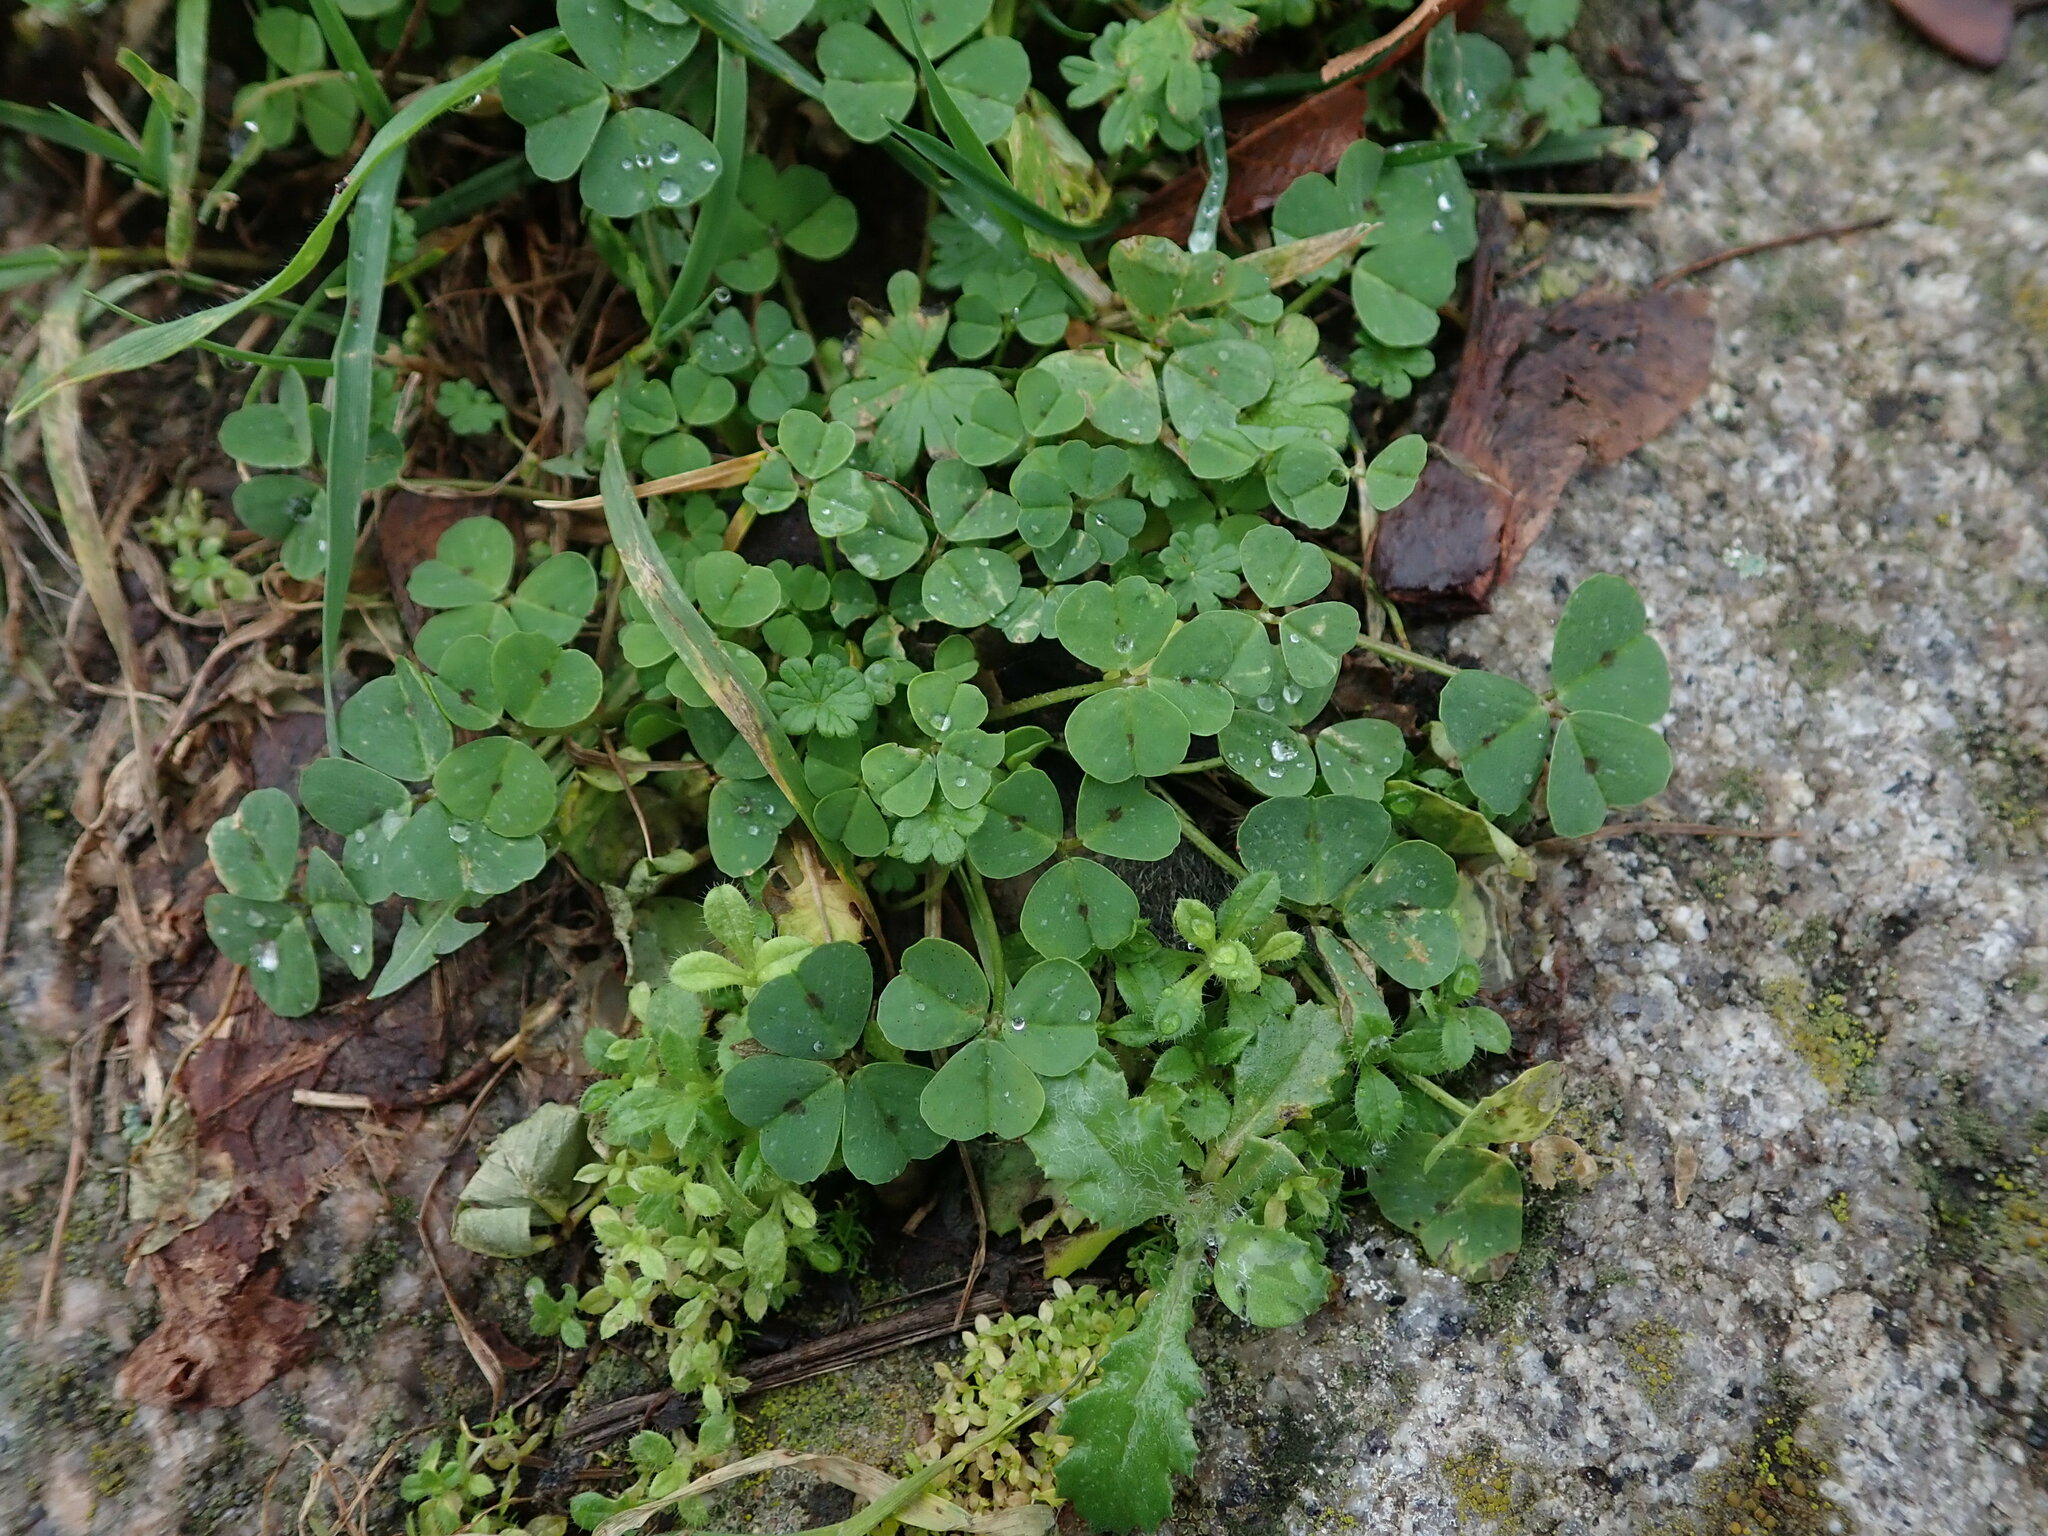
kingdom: Plantae
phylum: Tracheophyta
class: Magnoliopsida
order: Fabales
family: Fabaceae
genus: Medicago
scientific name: Medicago arabica
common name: Spotted medick
